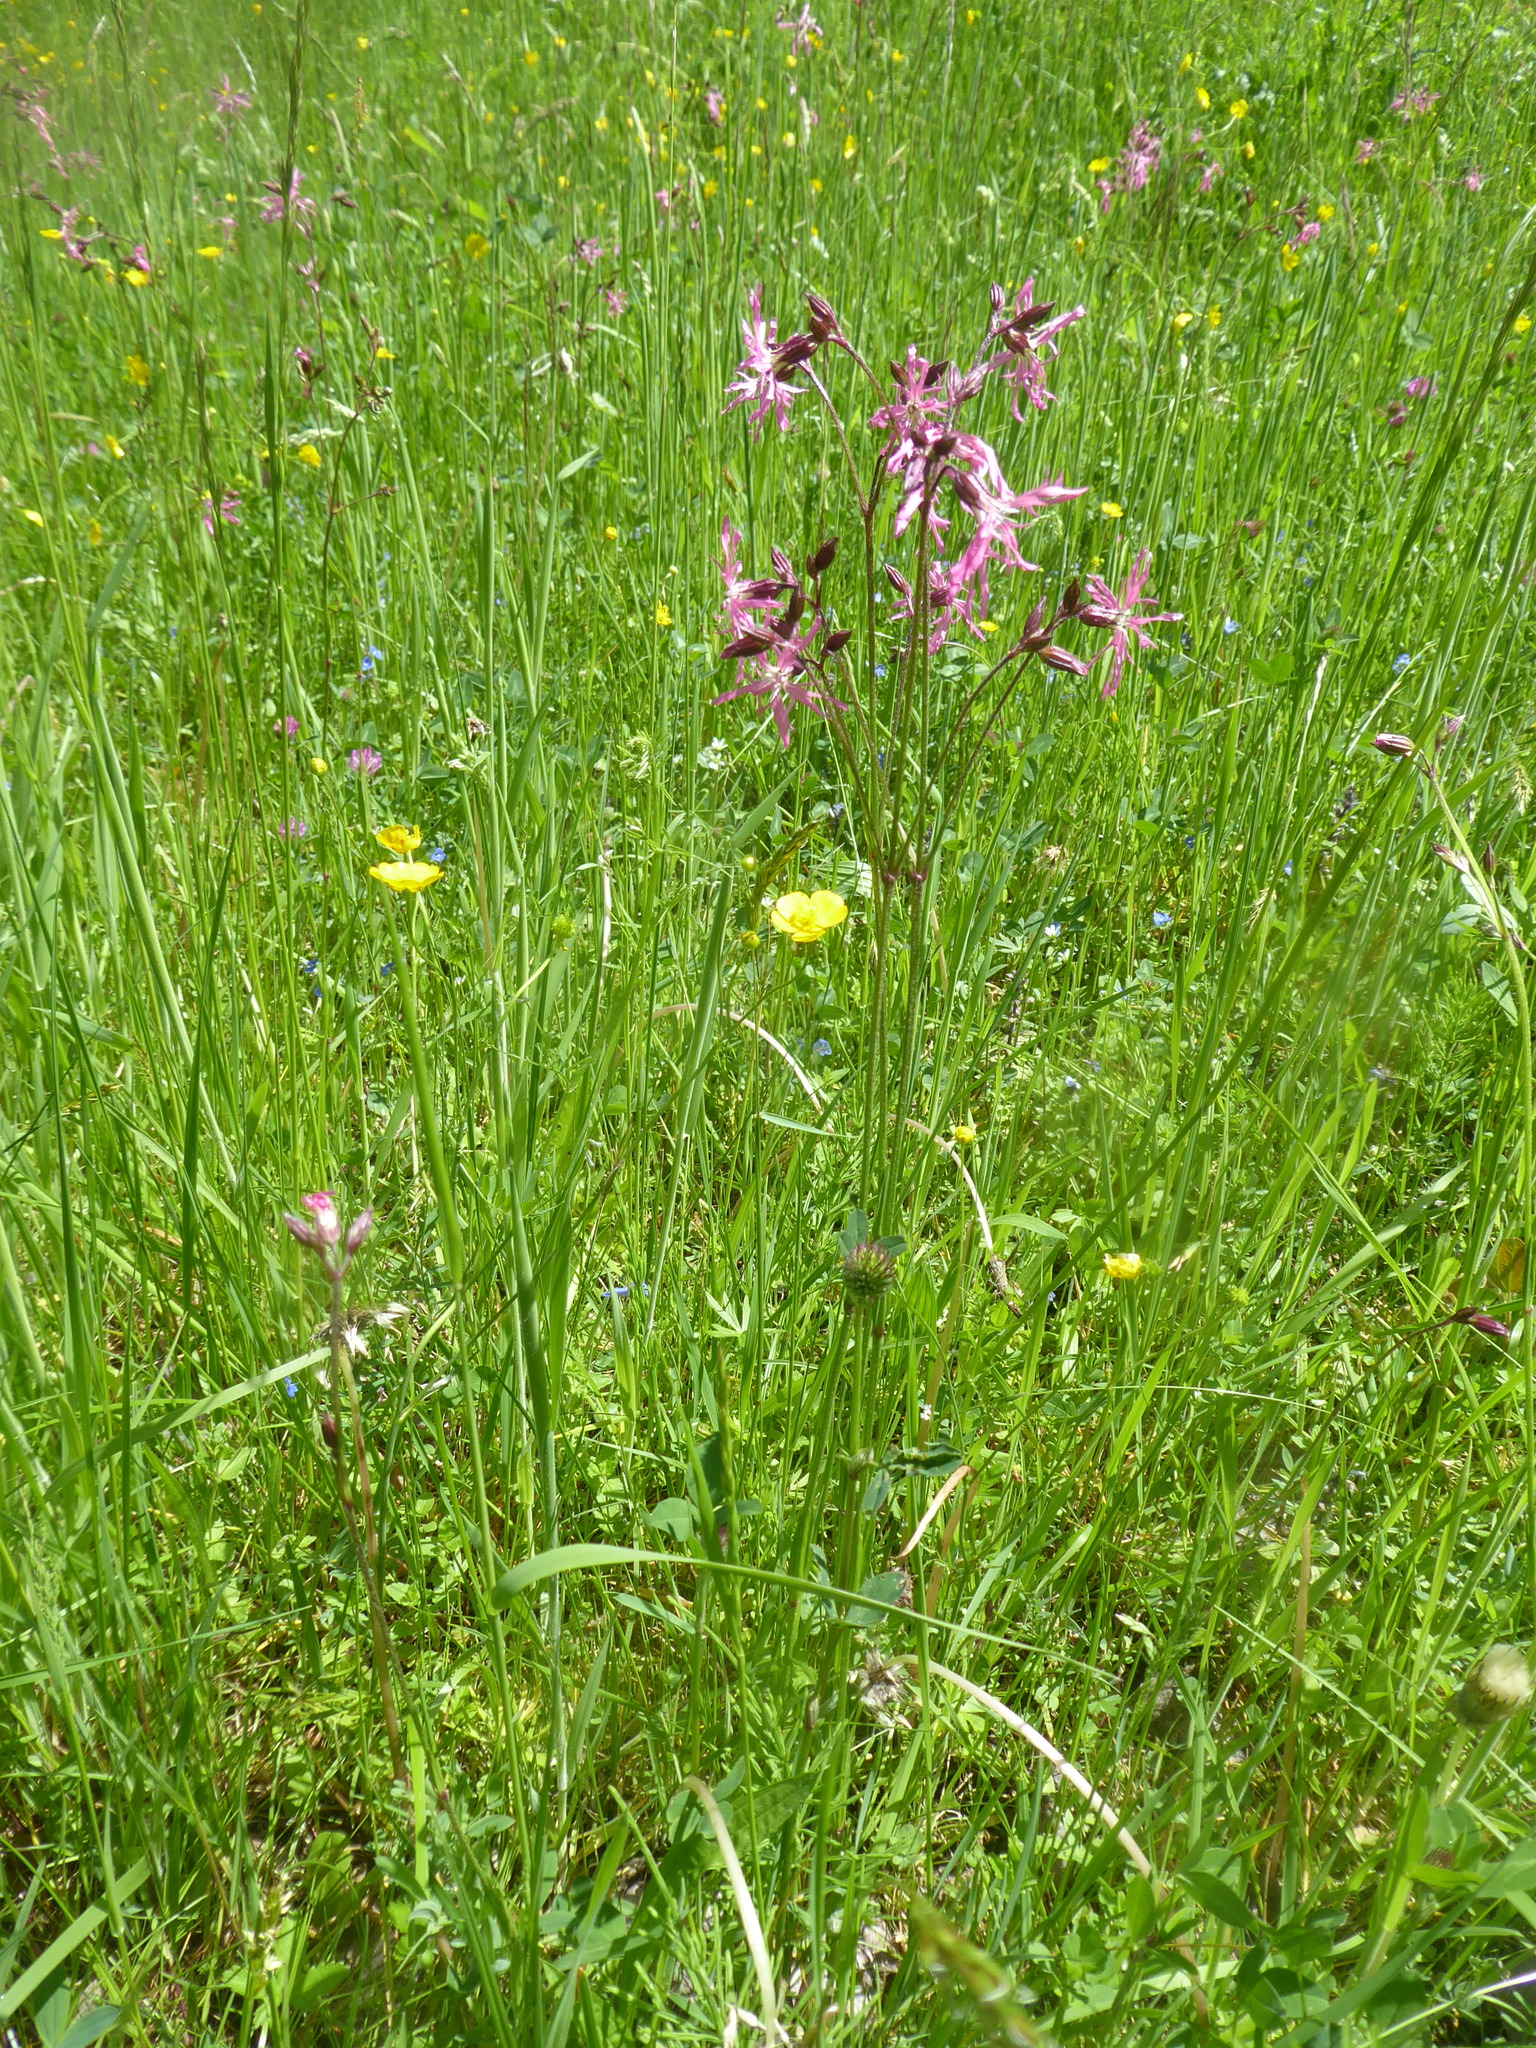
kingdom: Plantae
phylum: Tracheophyta
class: Magnoliopsida
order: Caryophyllales
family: Caryophyllaceae
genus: Silene
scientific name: Silene flos-cuculi
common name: Ragged-robin
